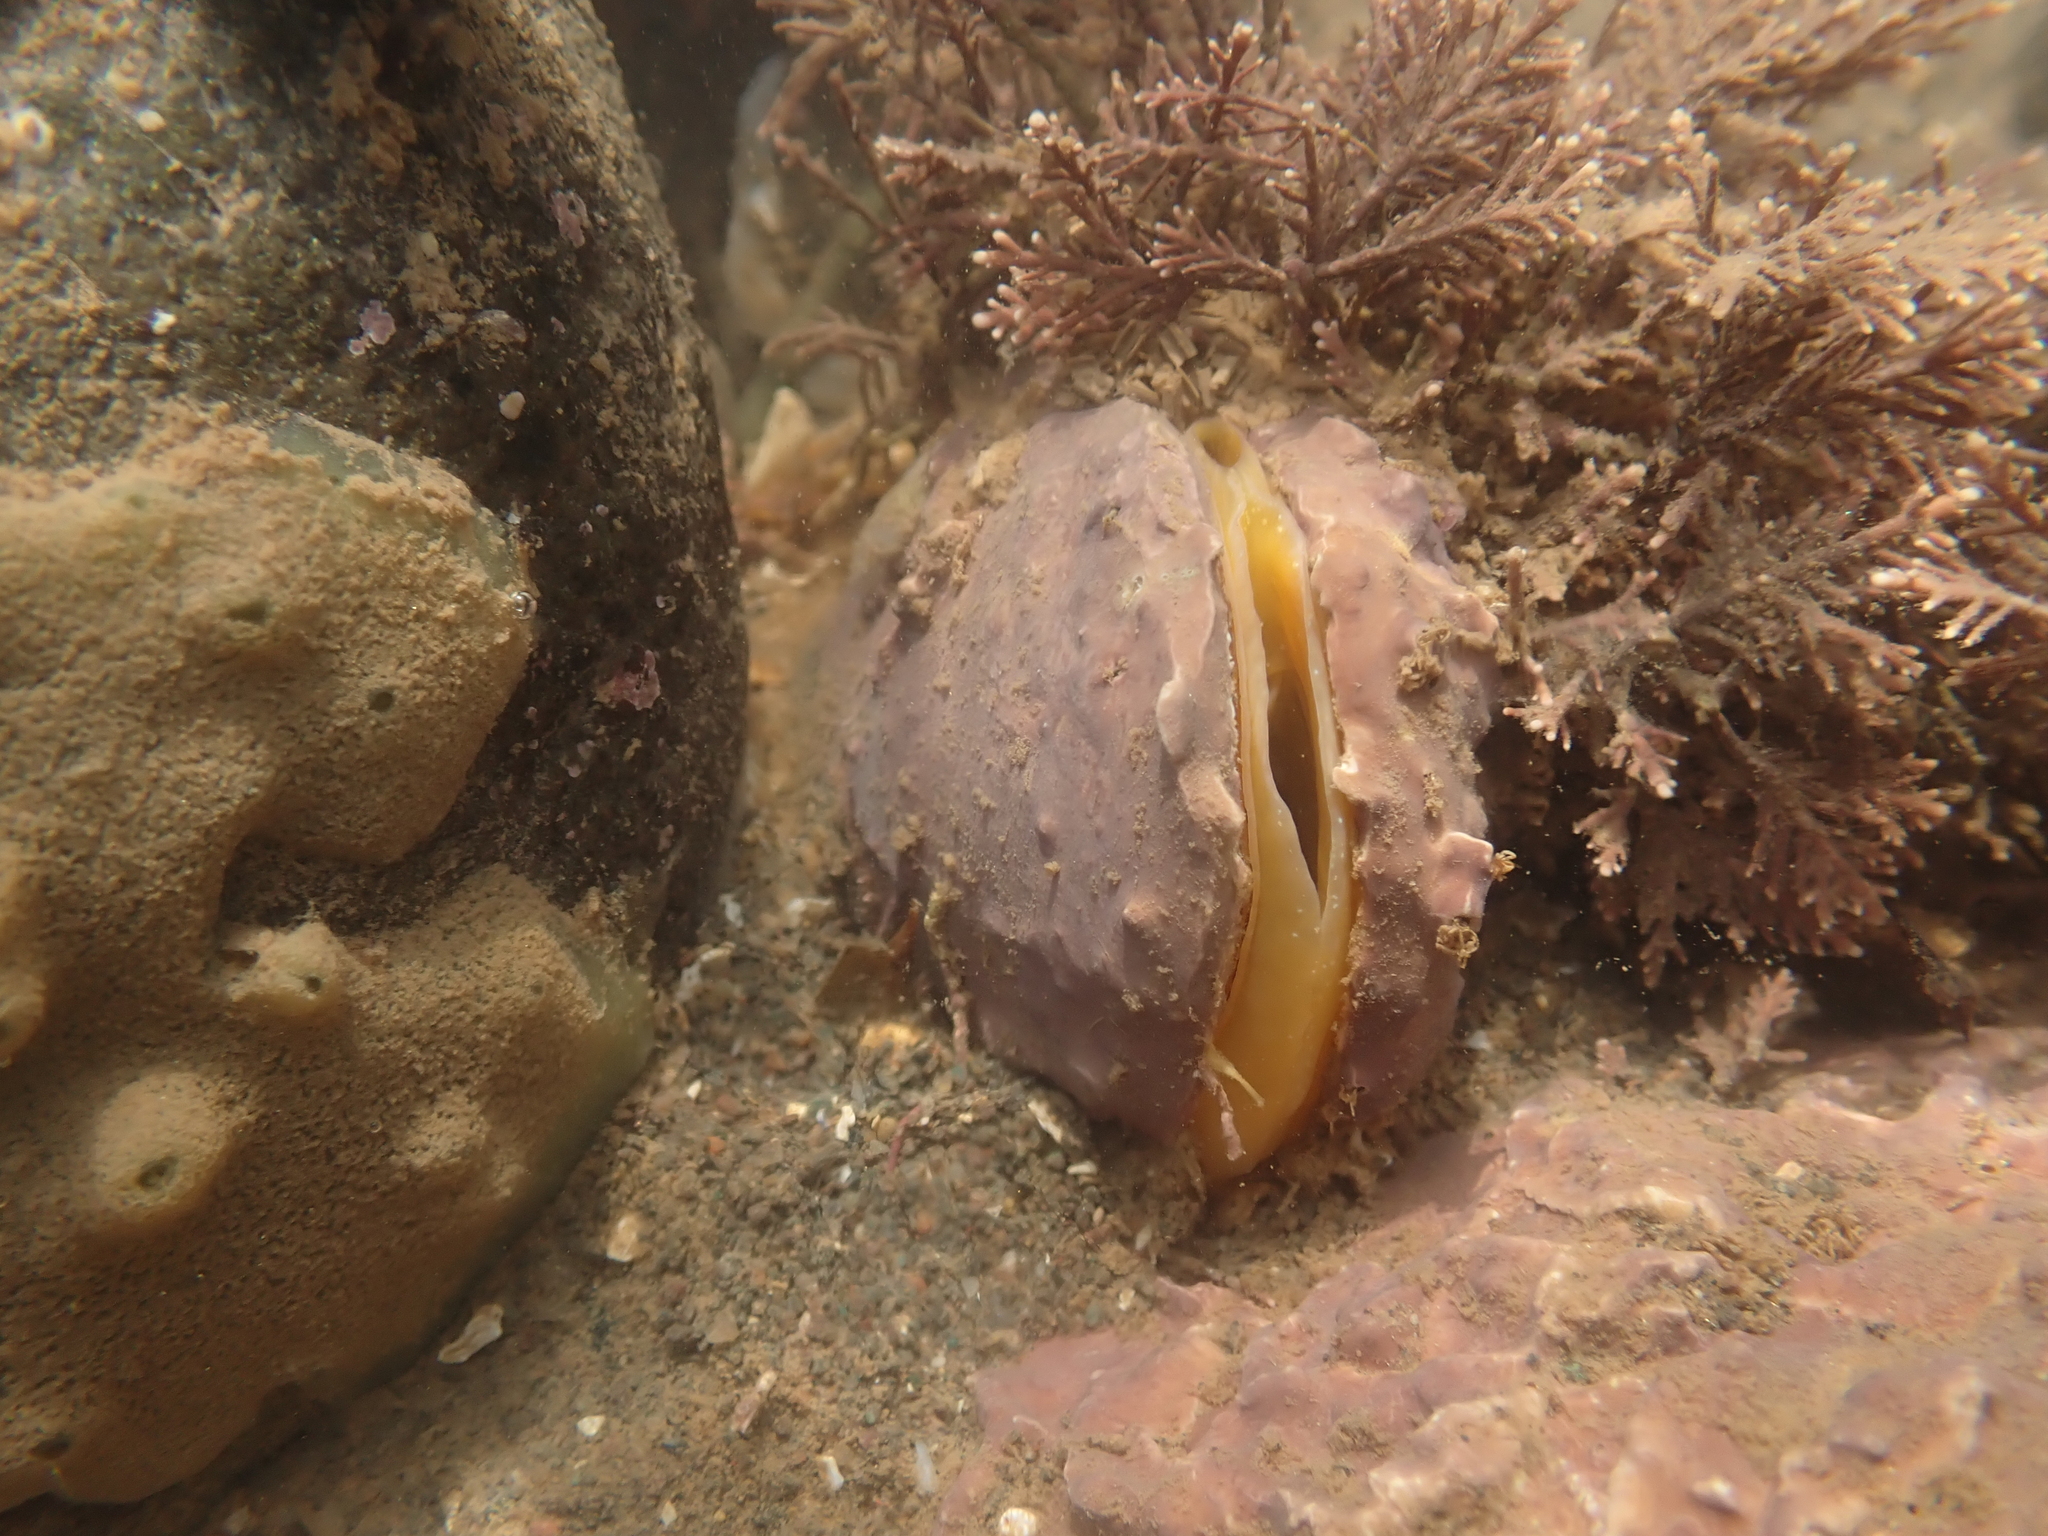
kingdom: Animalia
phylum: Mollusca
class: Bivalvia
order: Mytilida
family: Mytilidae
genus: Modiolus
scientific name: Modiolus modiolus
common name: Horse-mussel
